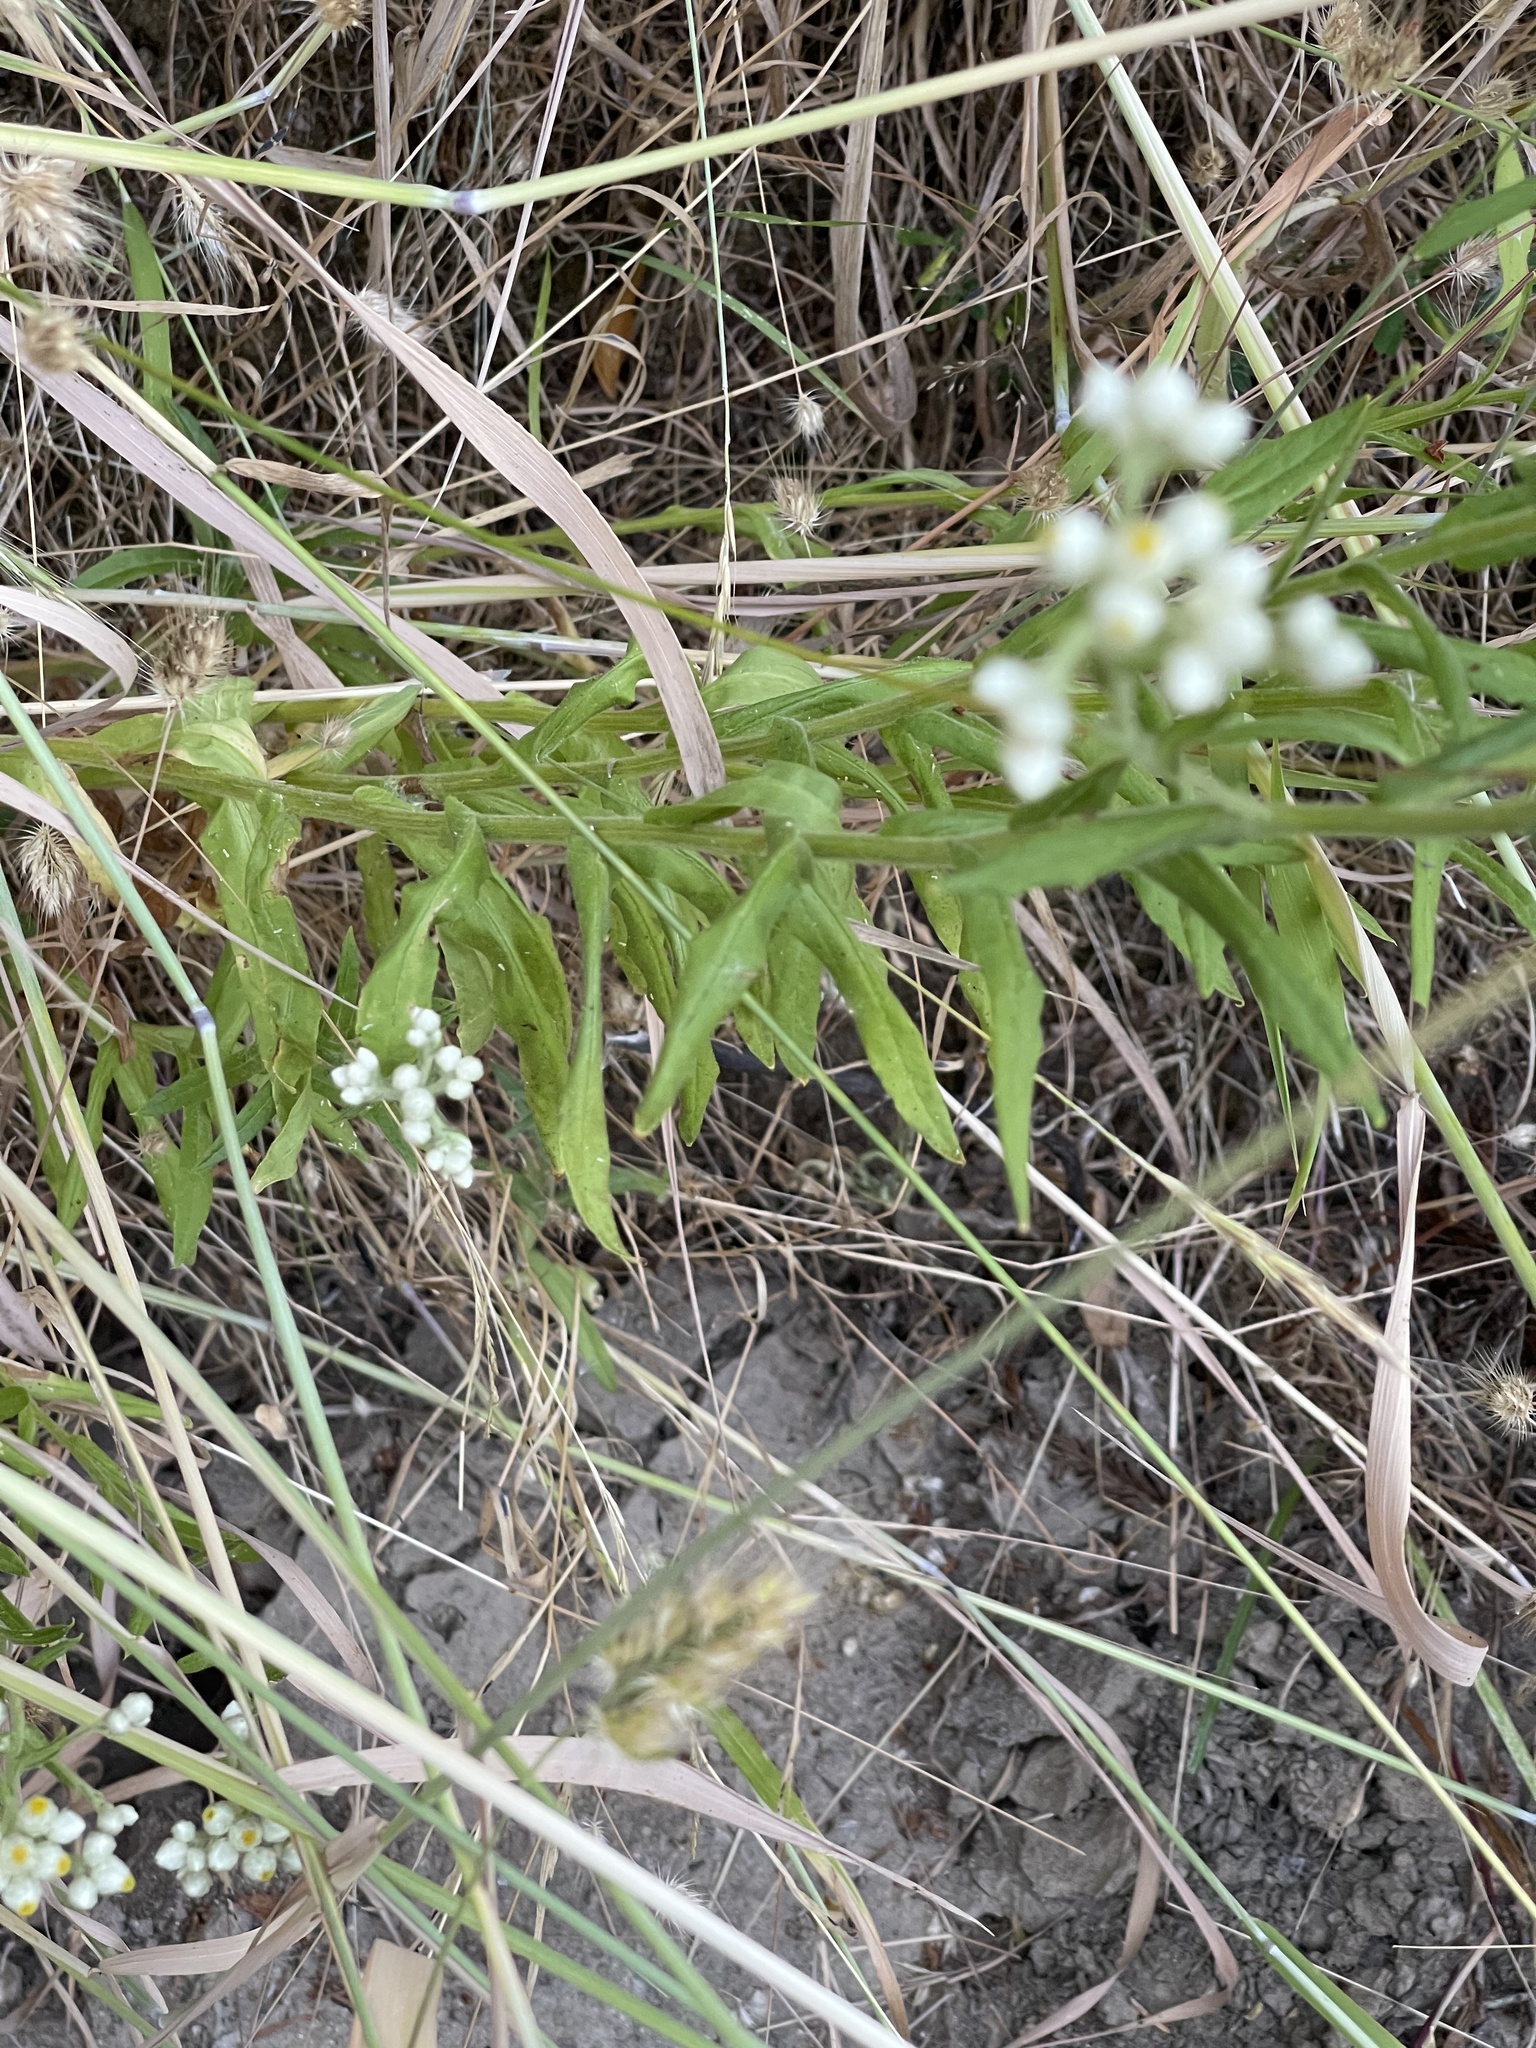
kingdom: Plantae
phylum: Tracheophyta
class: Magnoliopsida
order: Asterales
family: Asteraceae
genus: Anaphalis
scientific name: Anaphalis margaritacea
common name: Pearly everlasting
